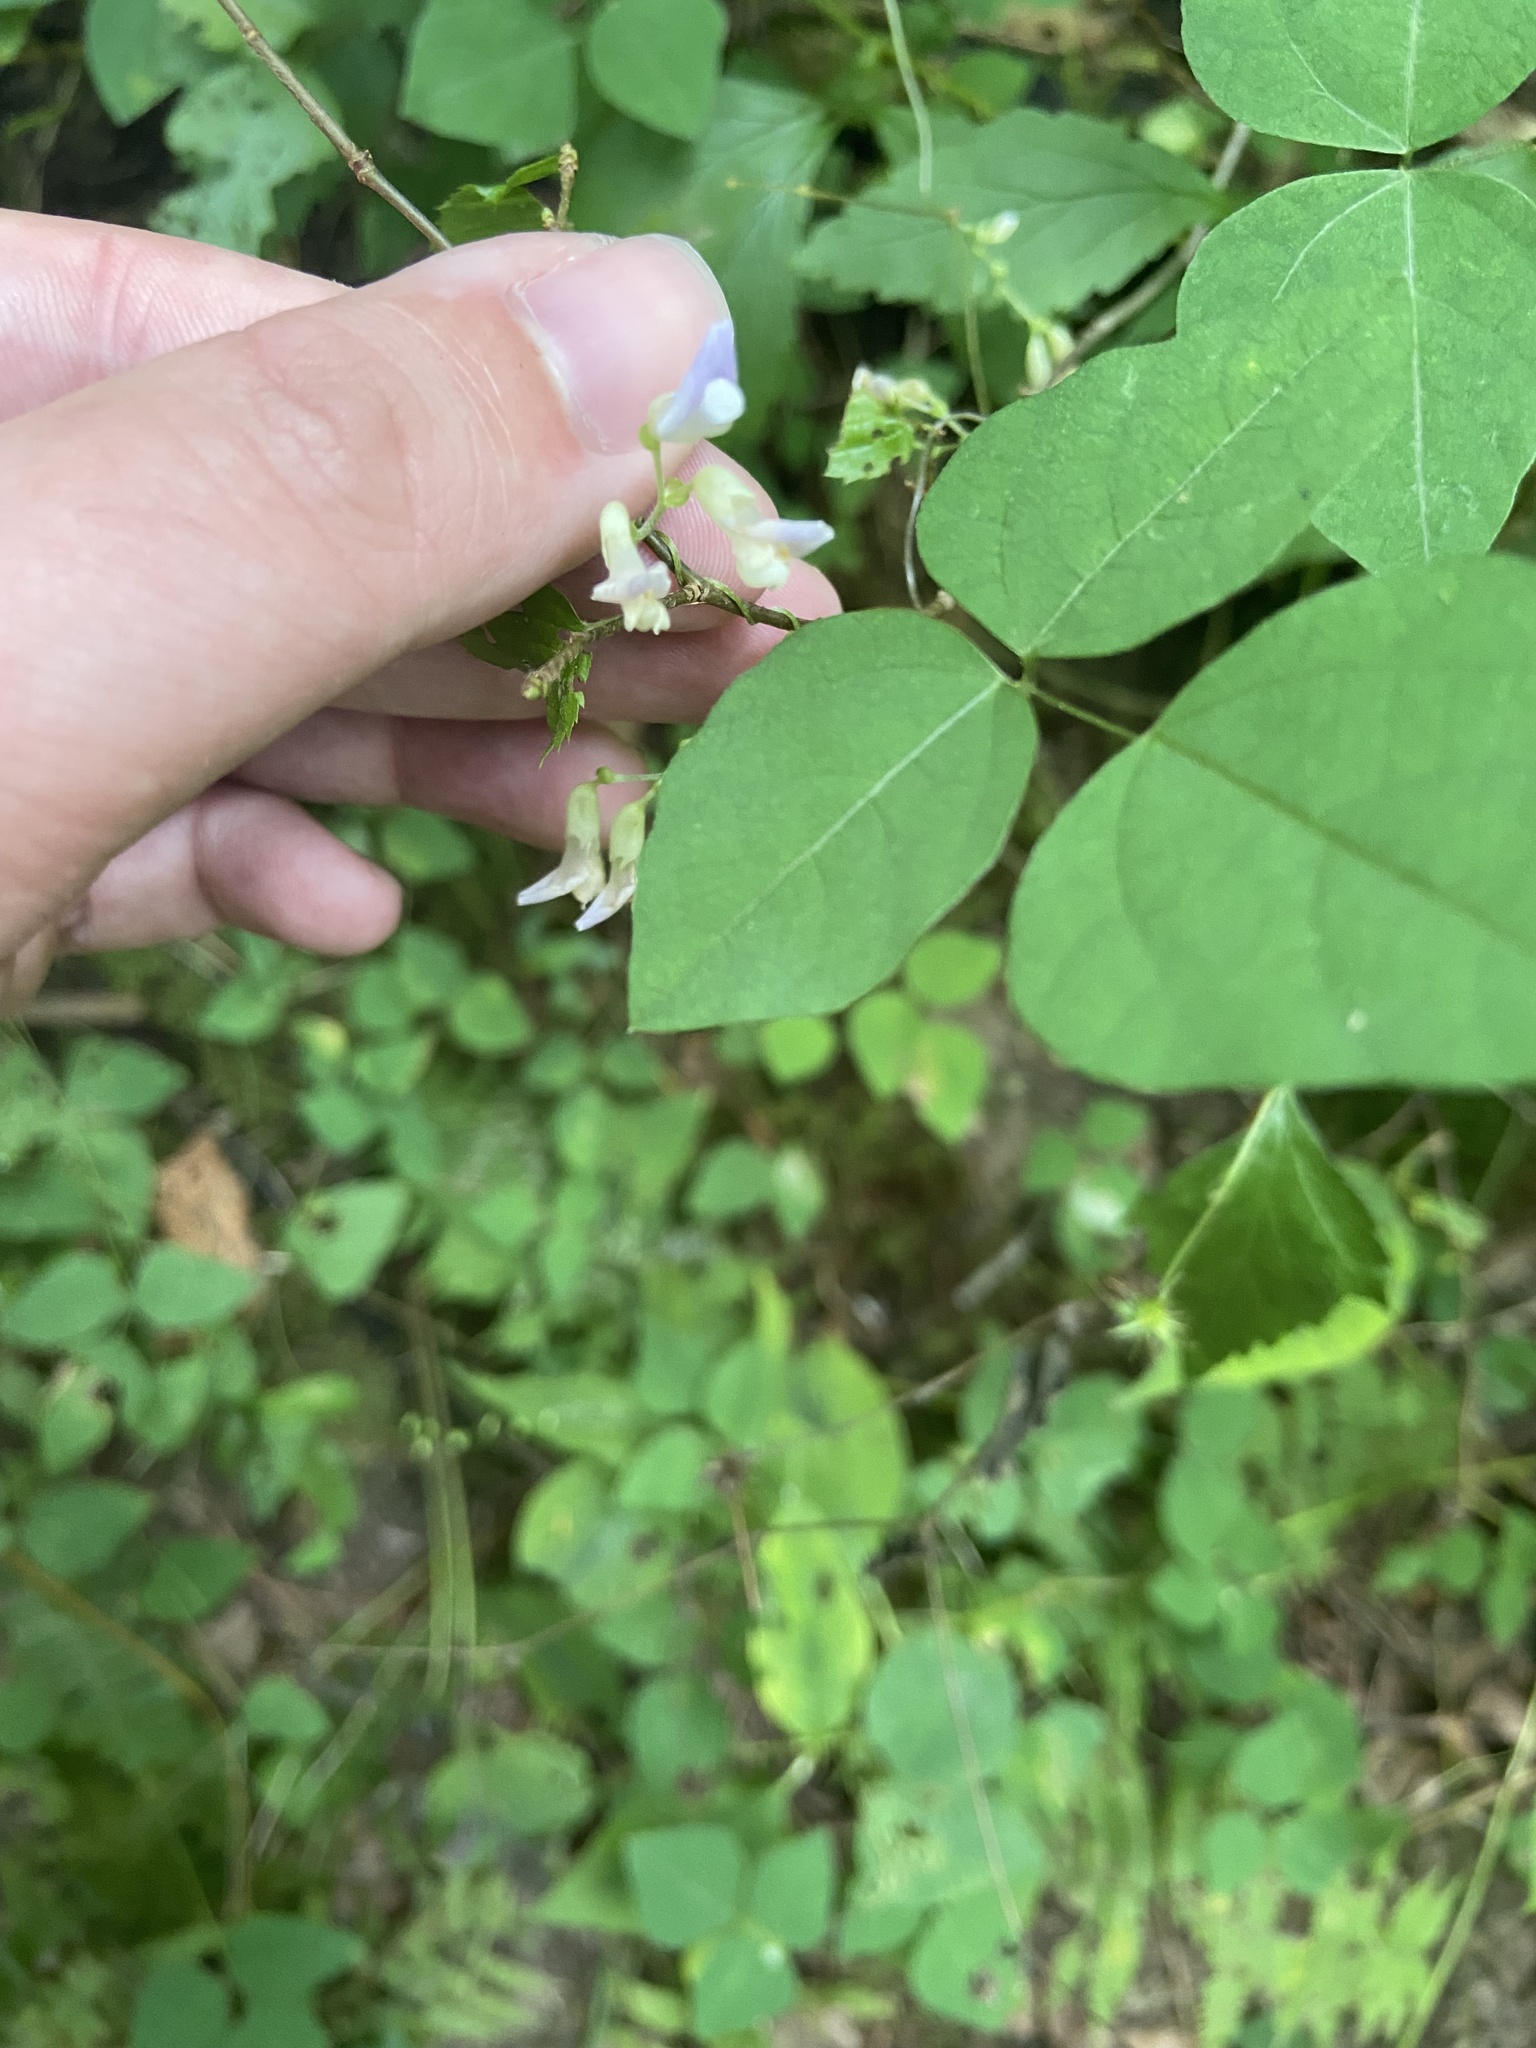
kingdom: Plantae
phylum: Tracheophyta
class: Magnoliopsida
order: Fabales
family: Fabaceae
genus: Amphicarpaea
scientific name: Amphicarpaea bracteata
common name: American hog peanut
